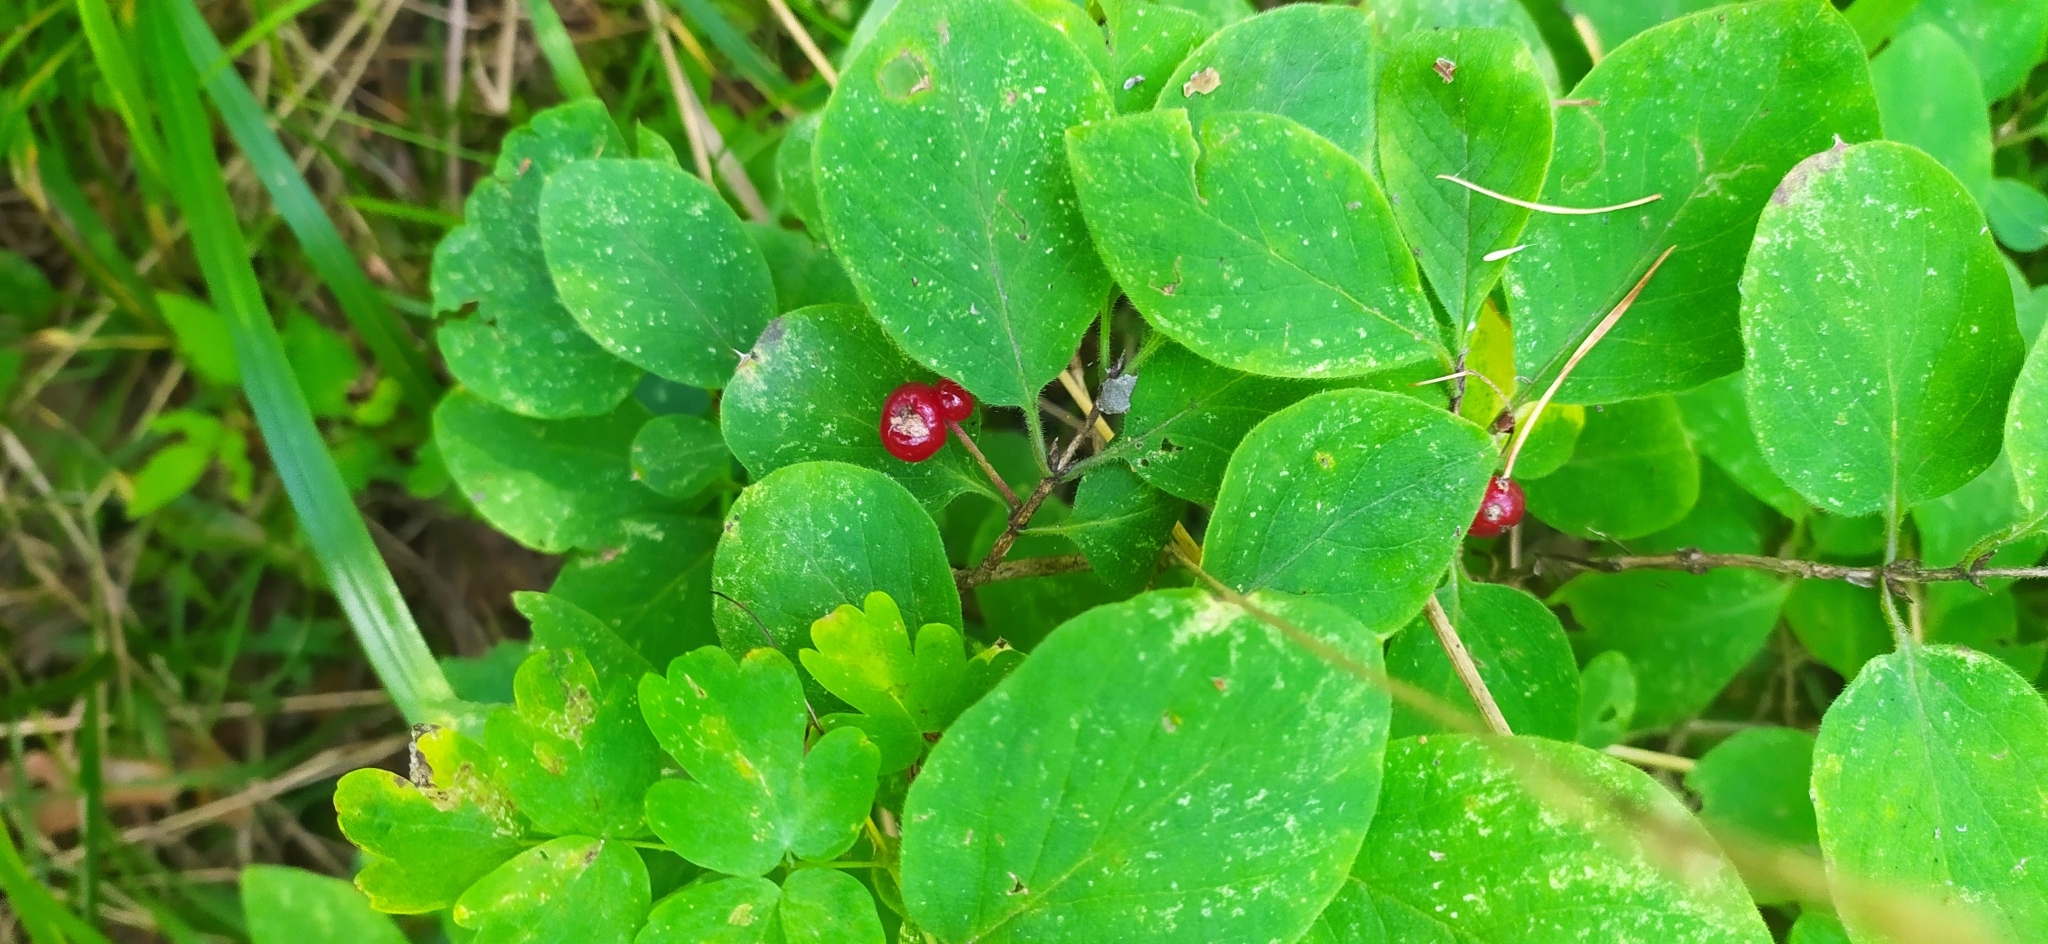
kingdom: Plantae
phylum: Tracheophyta
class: Magnoliopsida
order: Dipsacales
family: Caprifoliaceae
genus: Lonicera
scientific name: Lonicera xylosteum
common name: Fly honeysuckle
